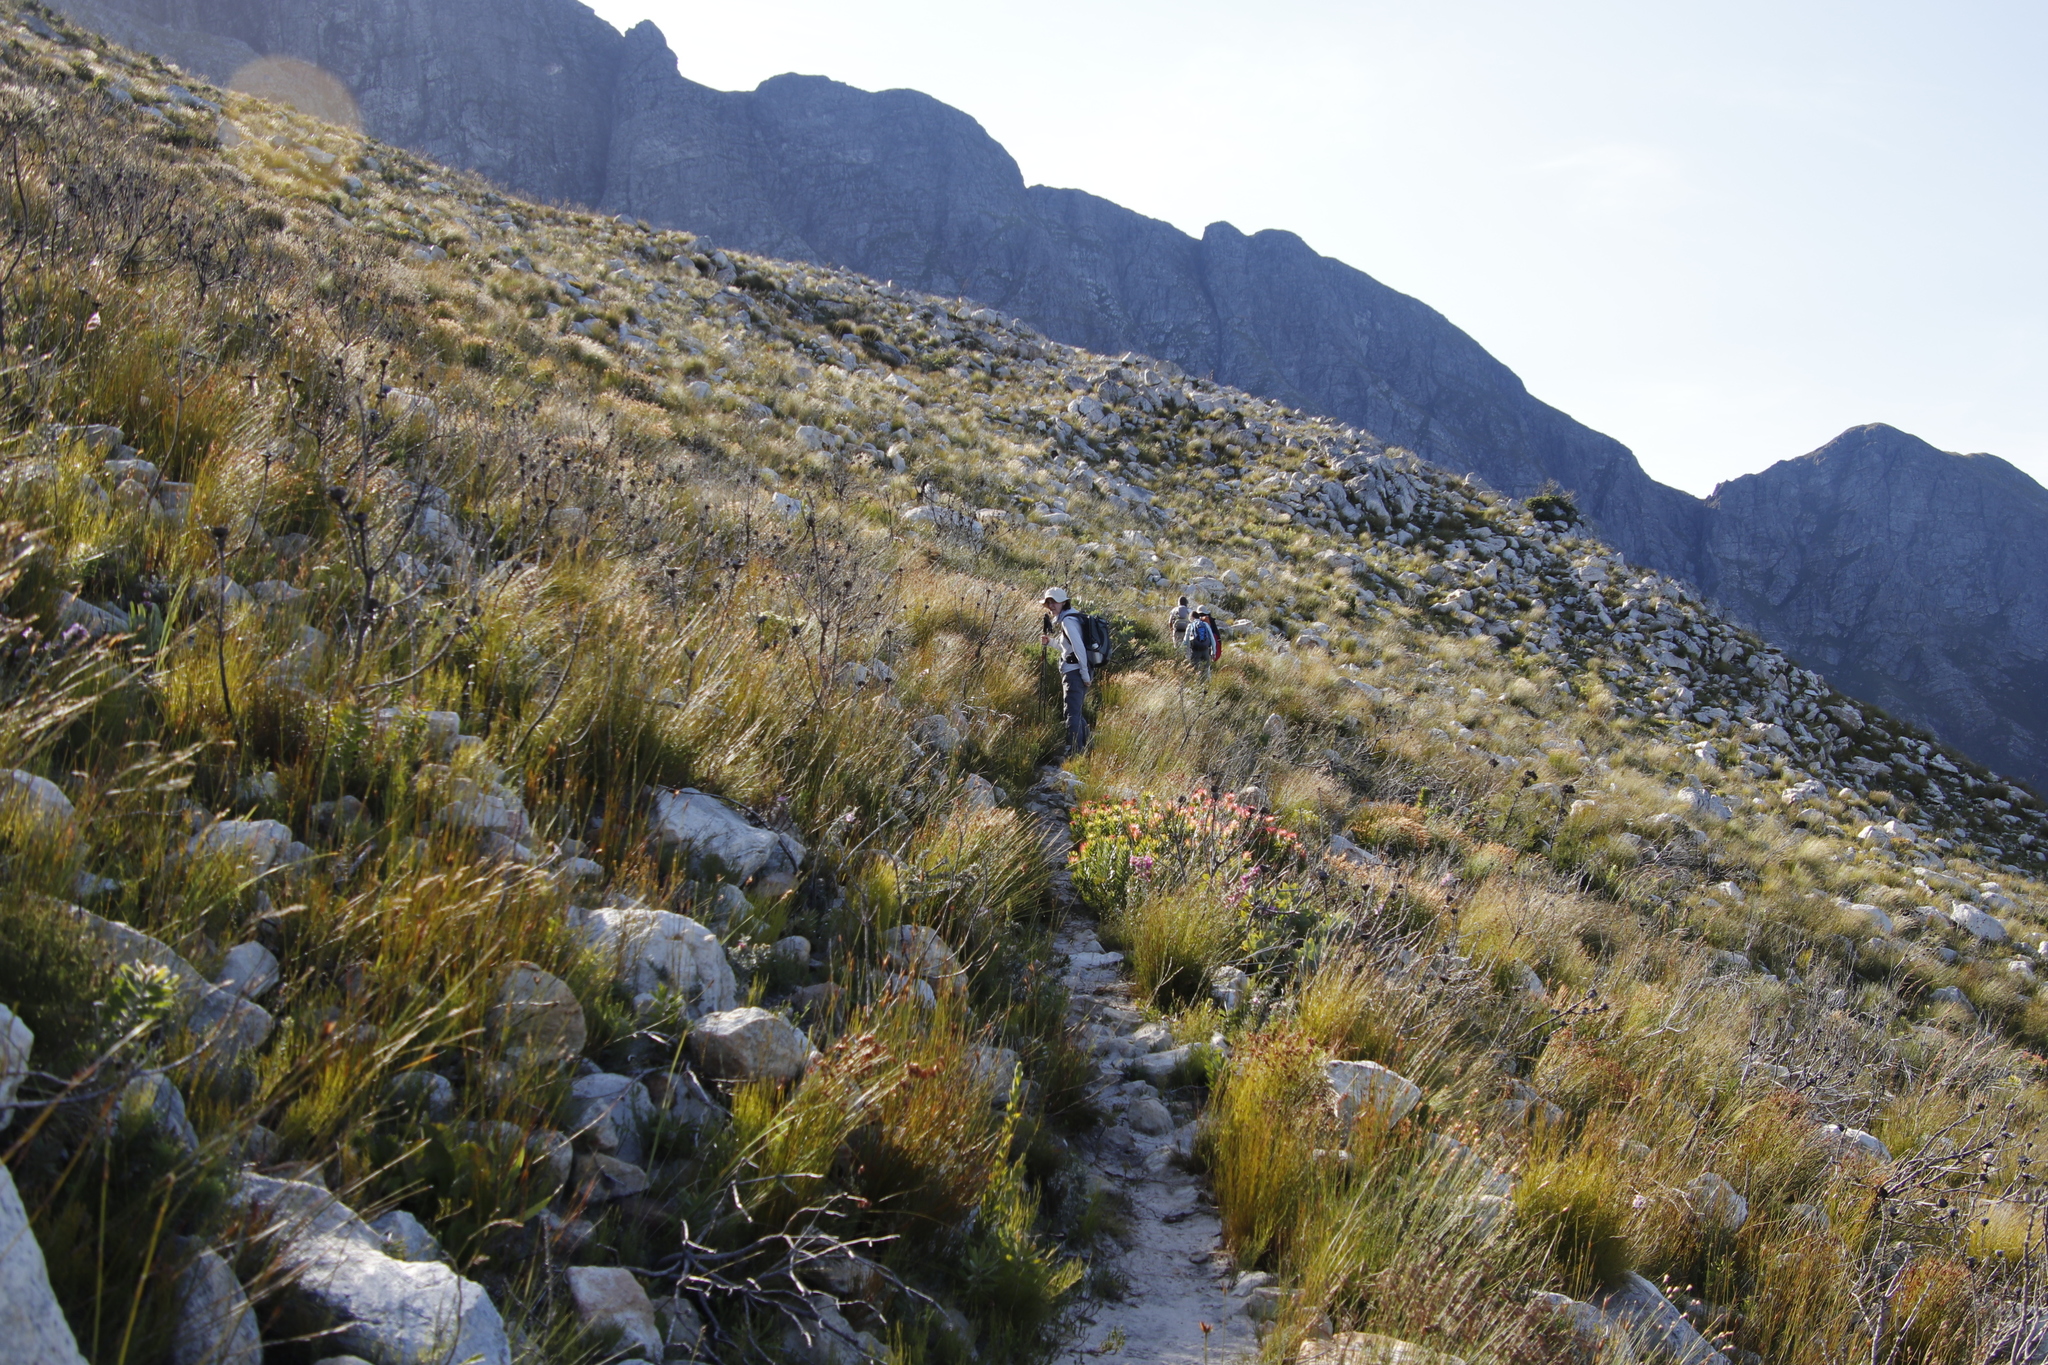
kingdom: Plantae
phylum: Tracheophyta
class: Magnoliopsida
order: Proteales
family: Proteaceae
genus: Mimetes
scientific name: Mimetes cucullatus
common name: Common pagoda
